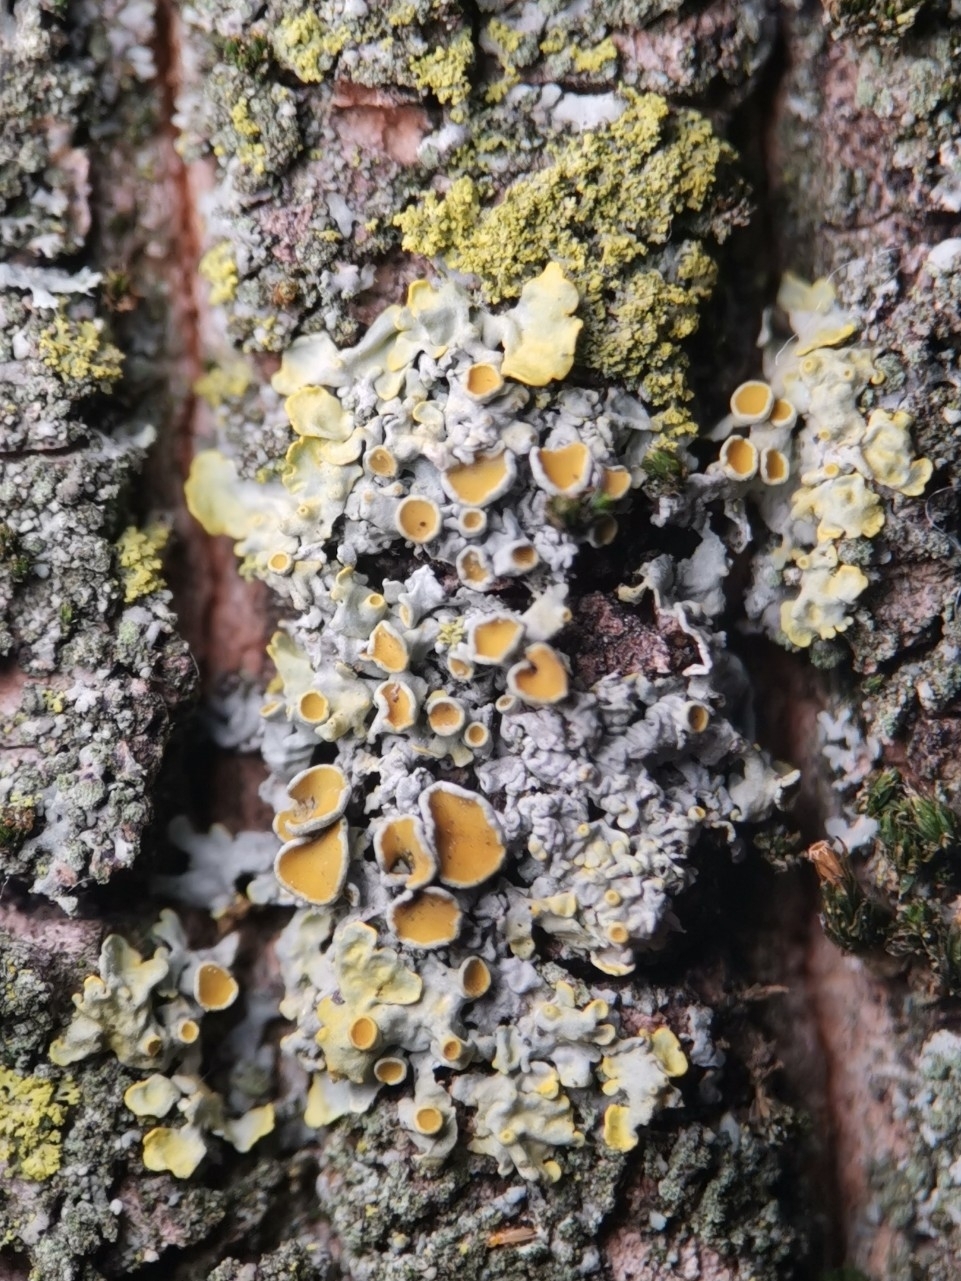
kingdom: Fungi
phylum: Ascomycota
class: Lecanoromycetes
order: Teloschistales
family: Teloschistaceae
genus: Xanthoria
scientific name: Xanthoria parietina
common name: Common orange lichen
